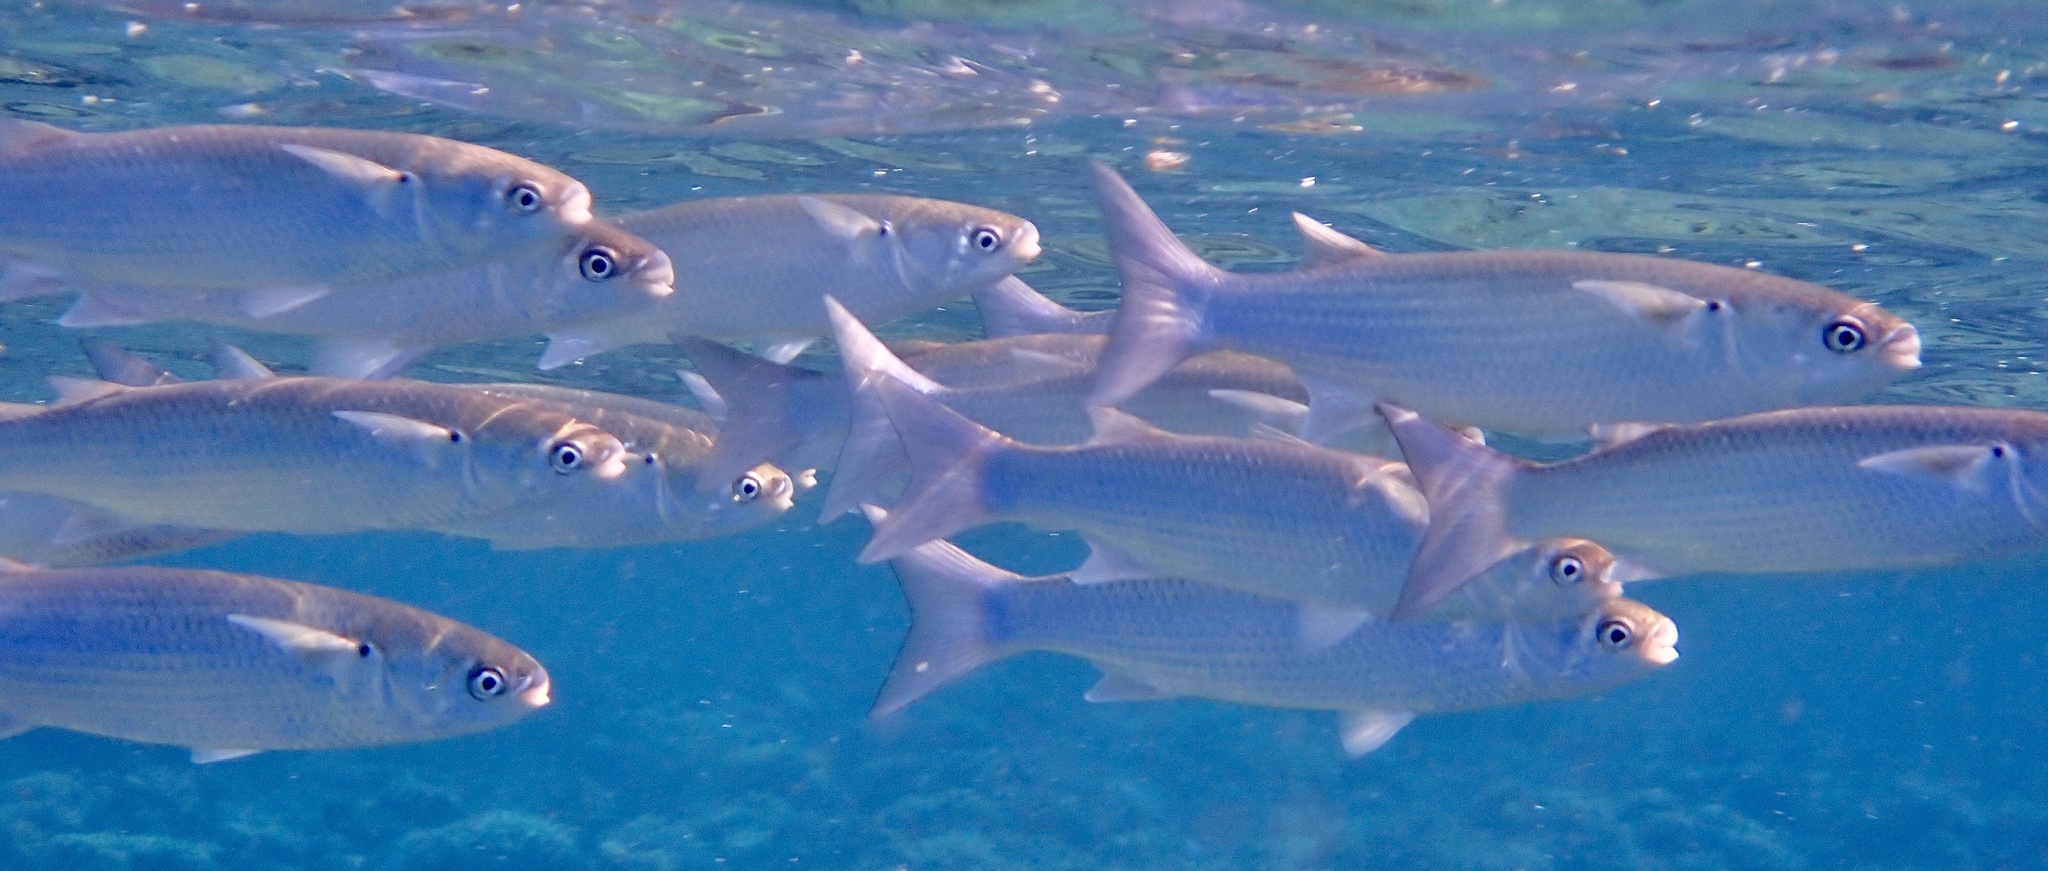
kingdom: Animalia
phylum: Chordata
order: Mugiliformes
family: Mugilidae
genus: Crenimugil
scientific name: Crenimugil crenilabis
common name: Fringelip mullet
